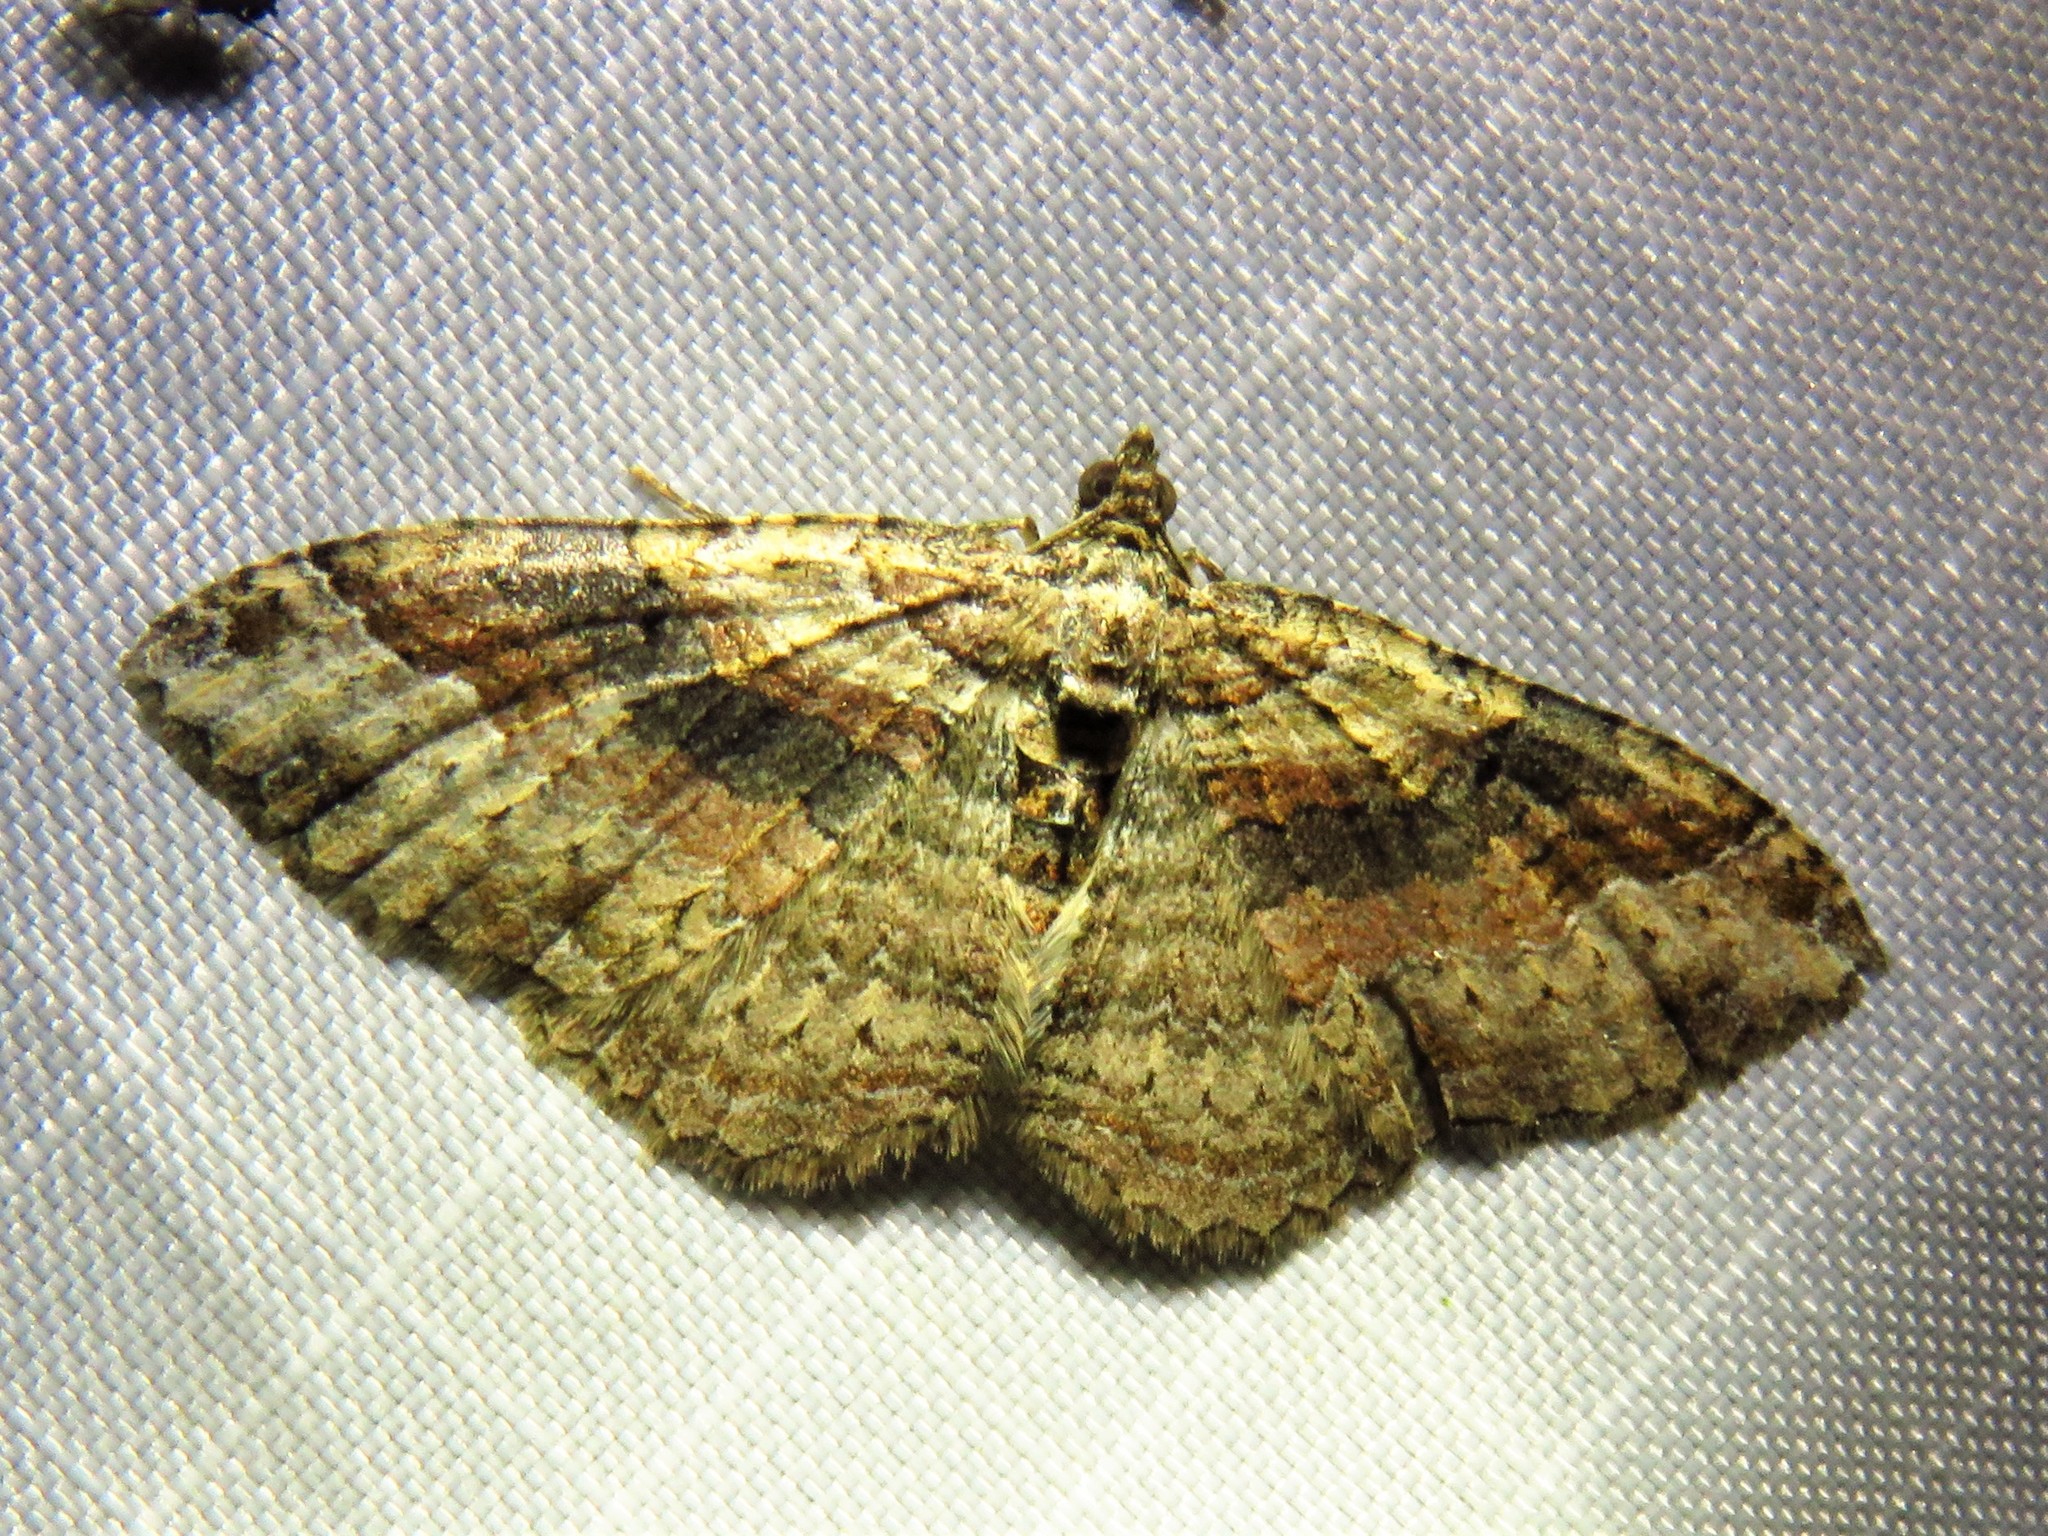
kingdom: Animalia
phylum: Arthropoda
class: Insecta
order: Lepidoptera
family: Geometridae
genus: Costaconvexa
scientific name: Costaconvexa centrostrigaria
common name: Bent-line carpet
